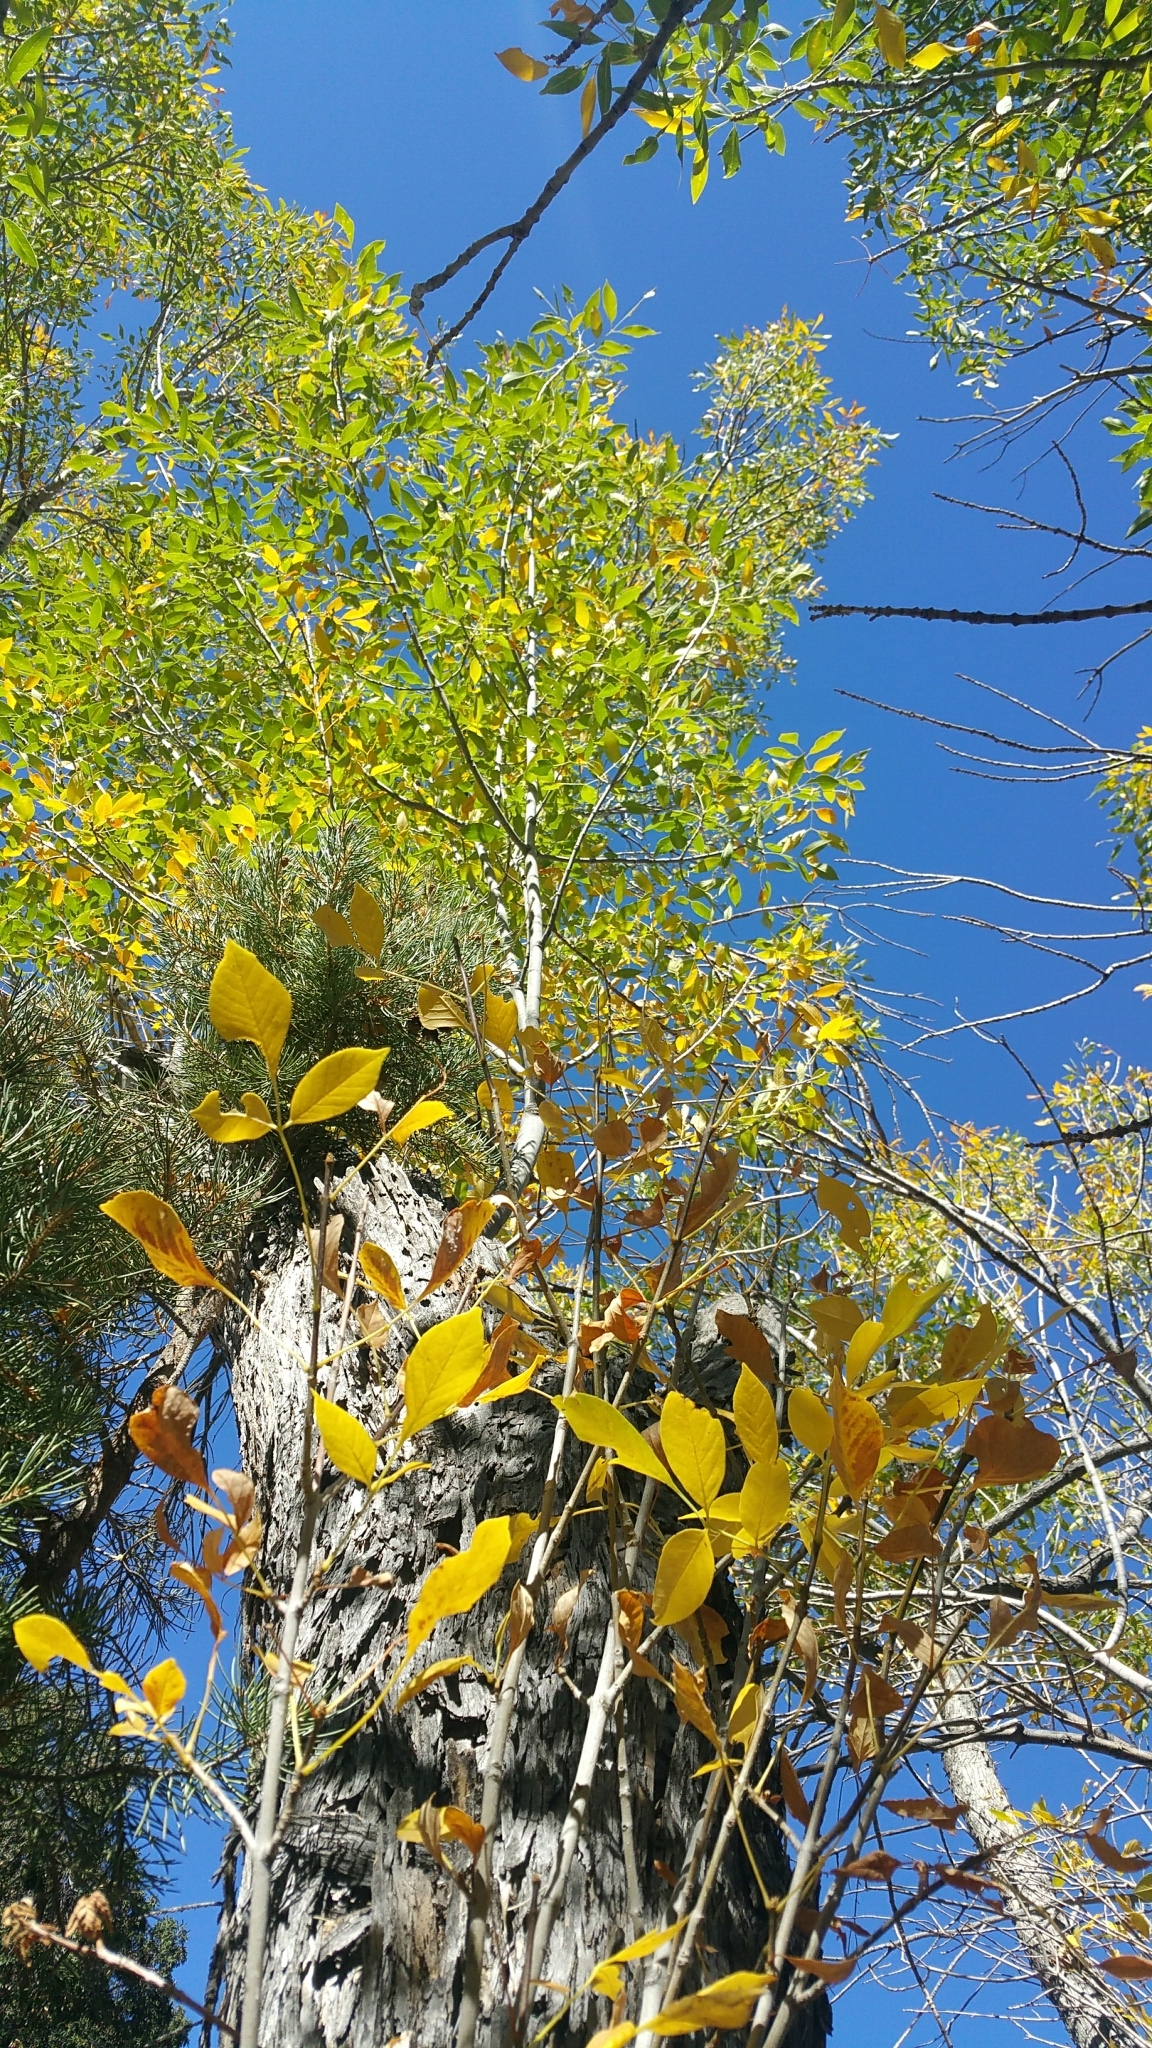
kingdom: Plantae
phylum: Tracheophyta
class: Magnoliopsida
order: Lamiales
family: Oleaceae
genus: Fraxinus
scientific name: Fraxinus velutina
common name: Arizon ash
